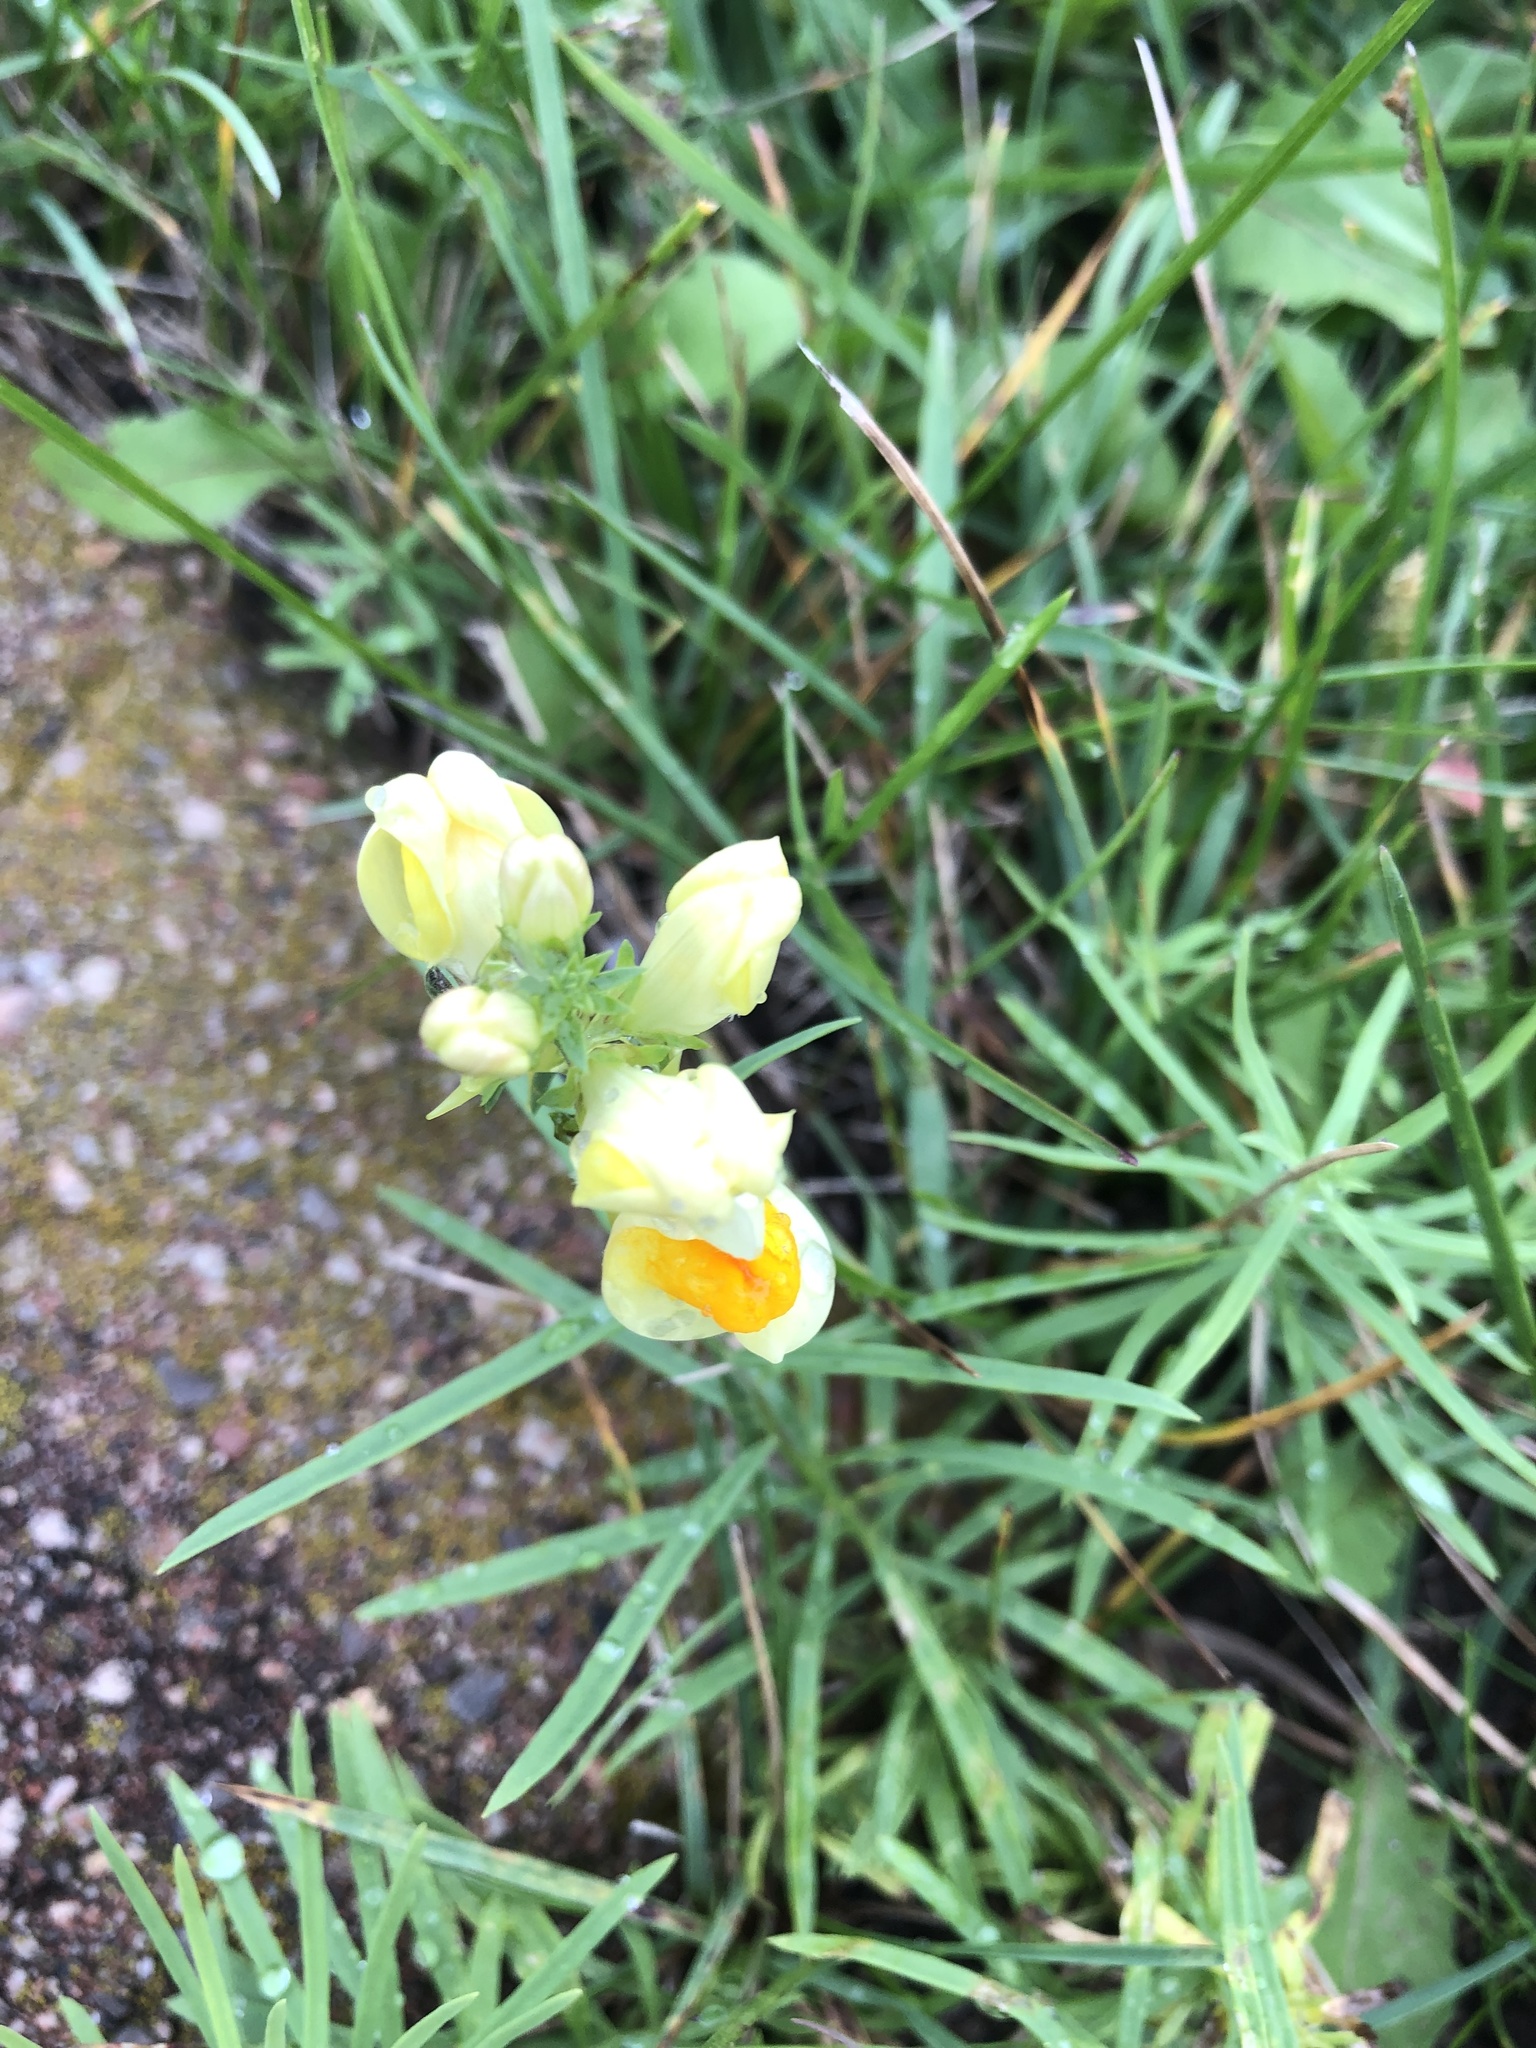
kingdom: Plantae
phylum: Tracheophyta
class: Magnoliopsida
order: Lamiales
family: Plantaginaceae
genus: Linaria
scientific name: Linaria vulgaris
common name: Butter and eggs
